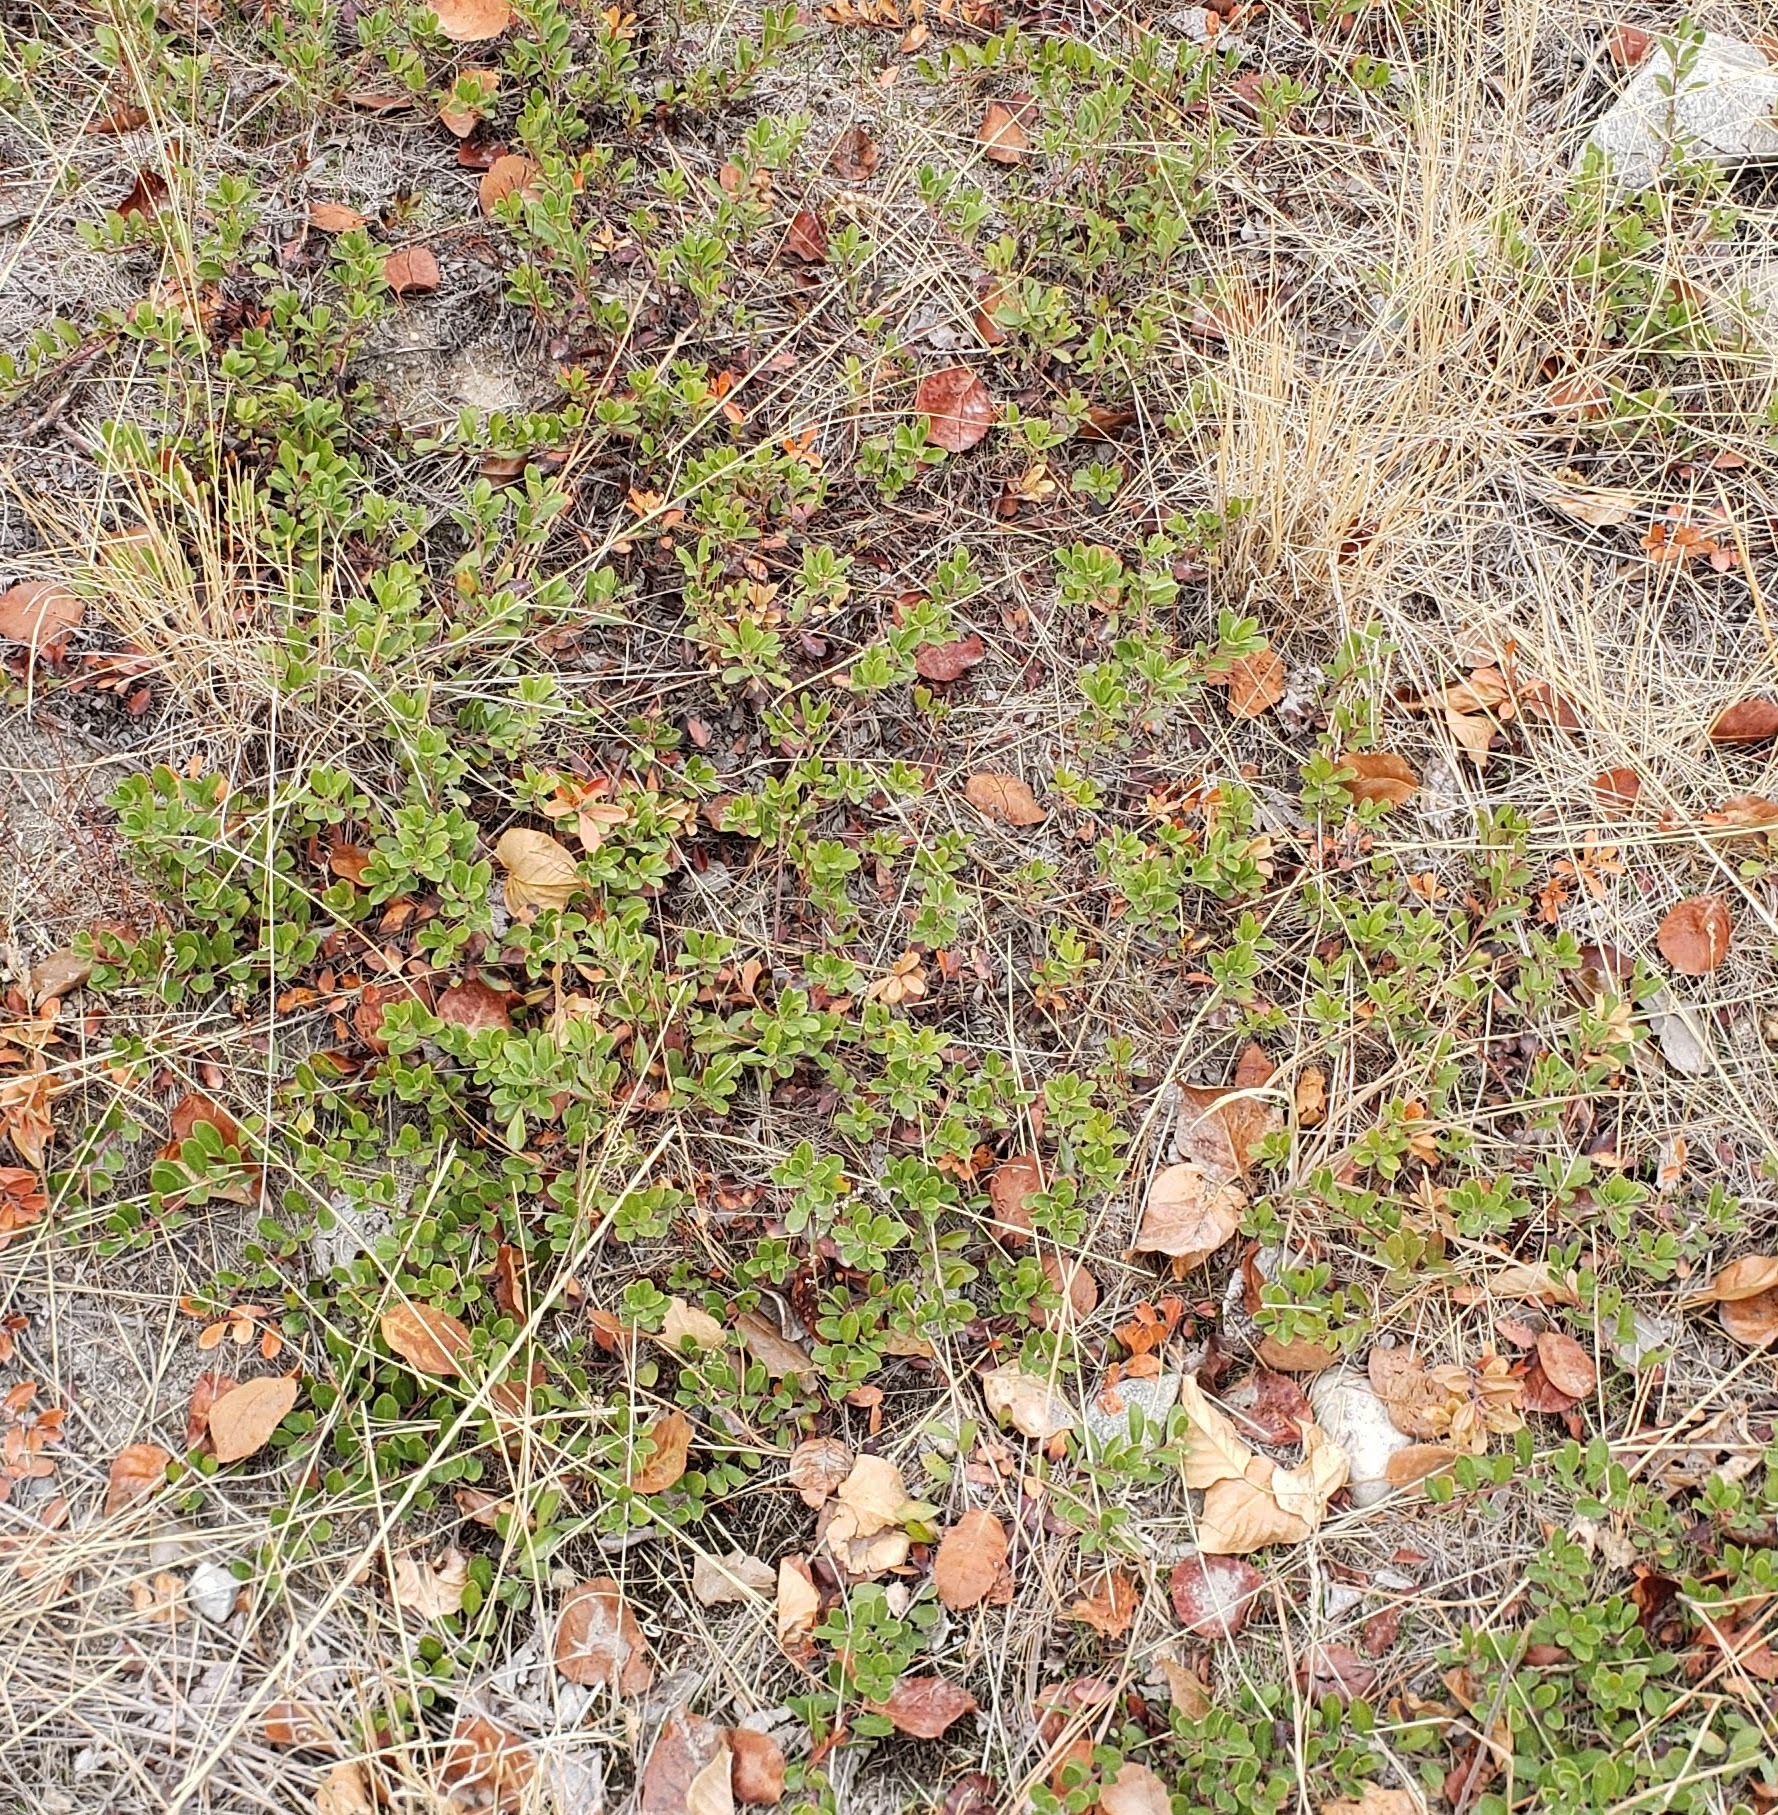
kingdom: Plantae
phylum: Tracheophyta
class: Magnoliopsida
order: Ericales
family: Ericaceae
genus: Arctostaphylos
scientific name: Arctostaphylos uva-ursi
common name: Bearberry
